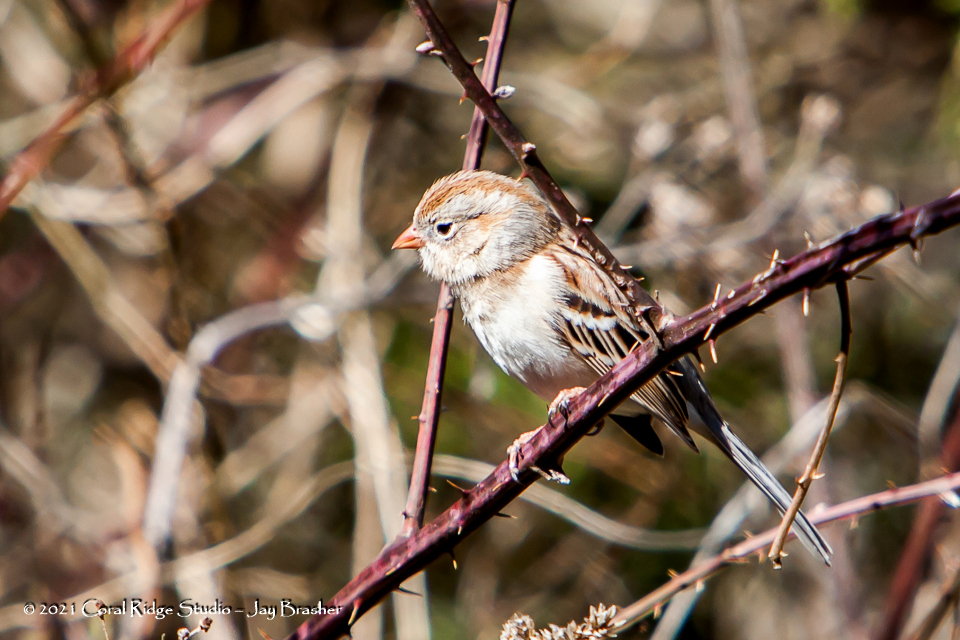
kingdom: Animalia
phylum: Chordata
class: Aves
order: Passeriformes
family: Passerellidae
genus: Spizella
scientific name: Spizella pusilla
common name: Field sparrow
